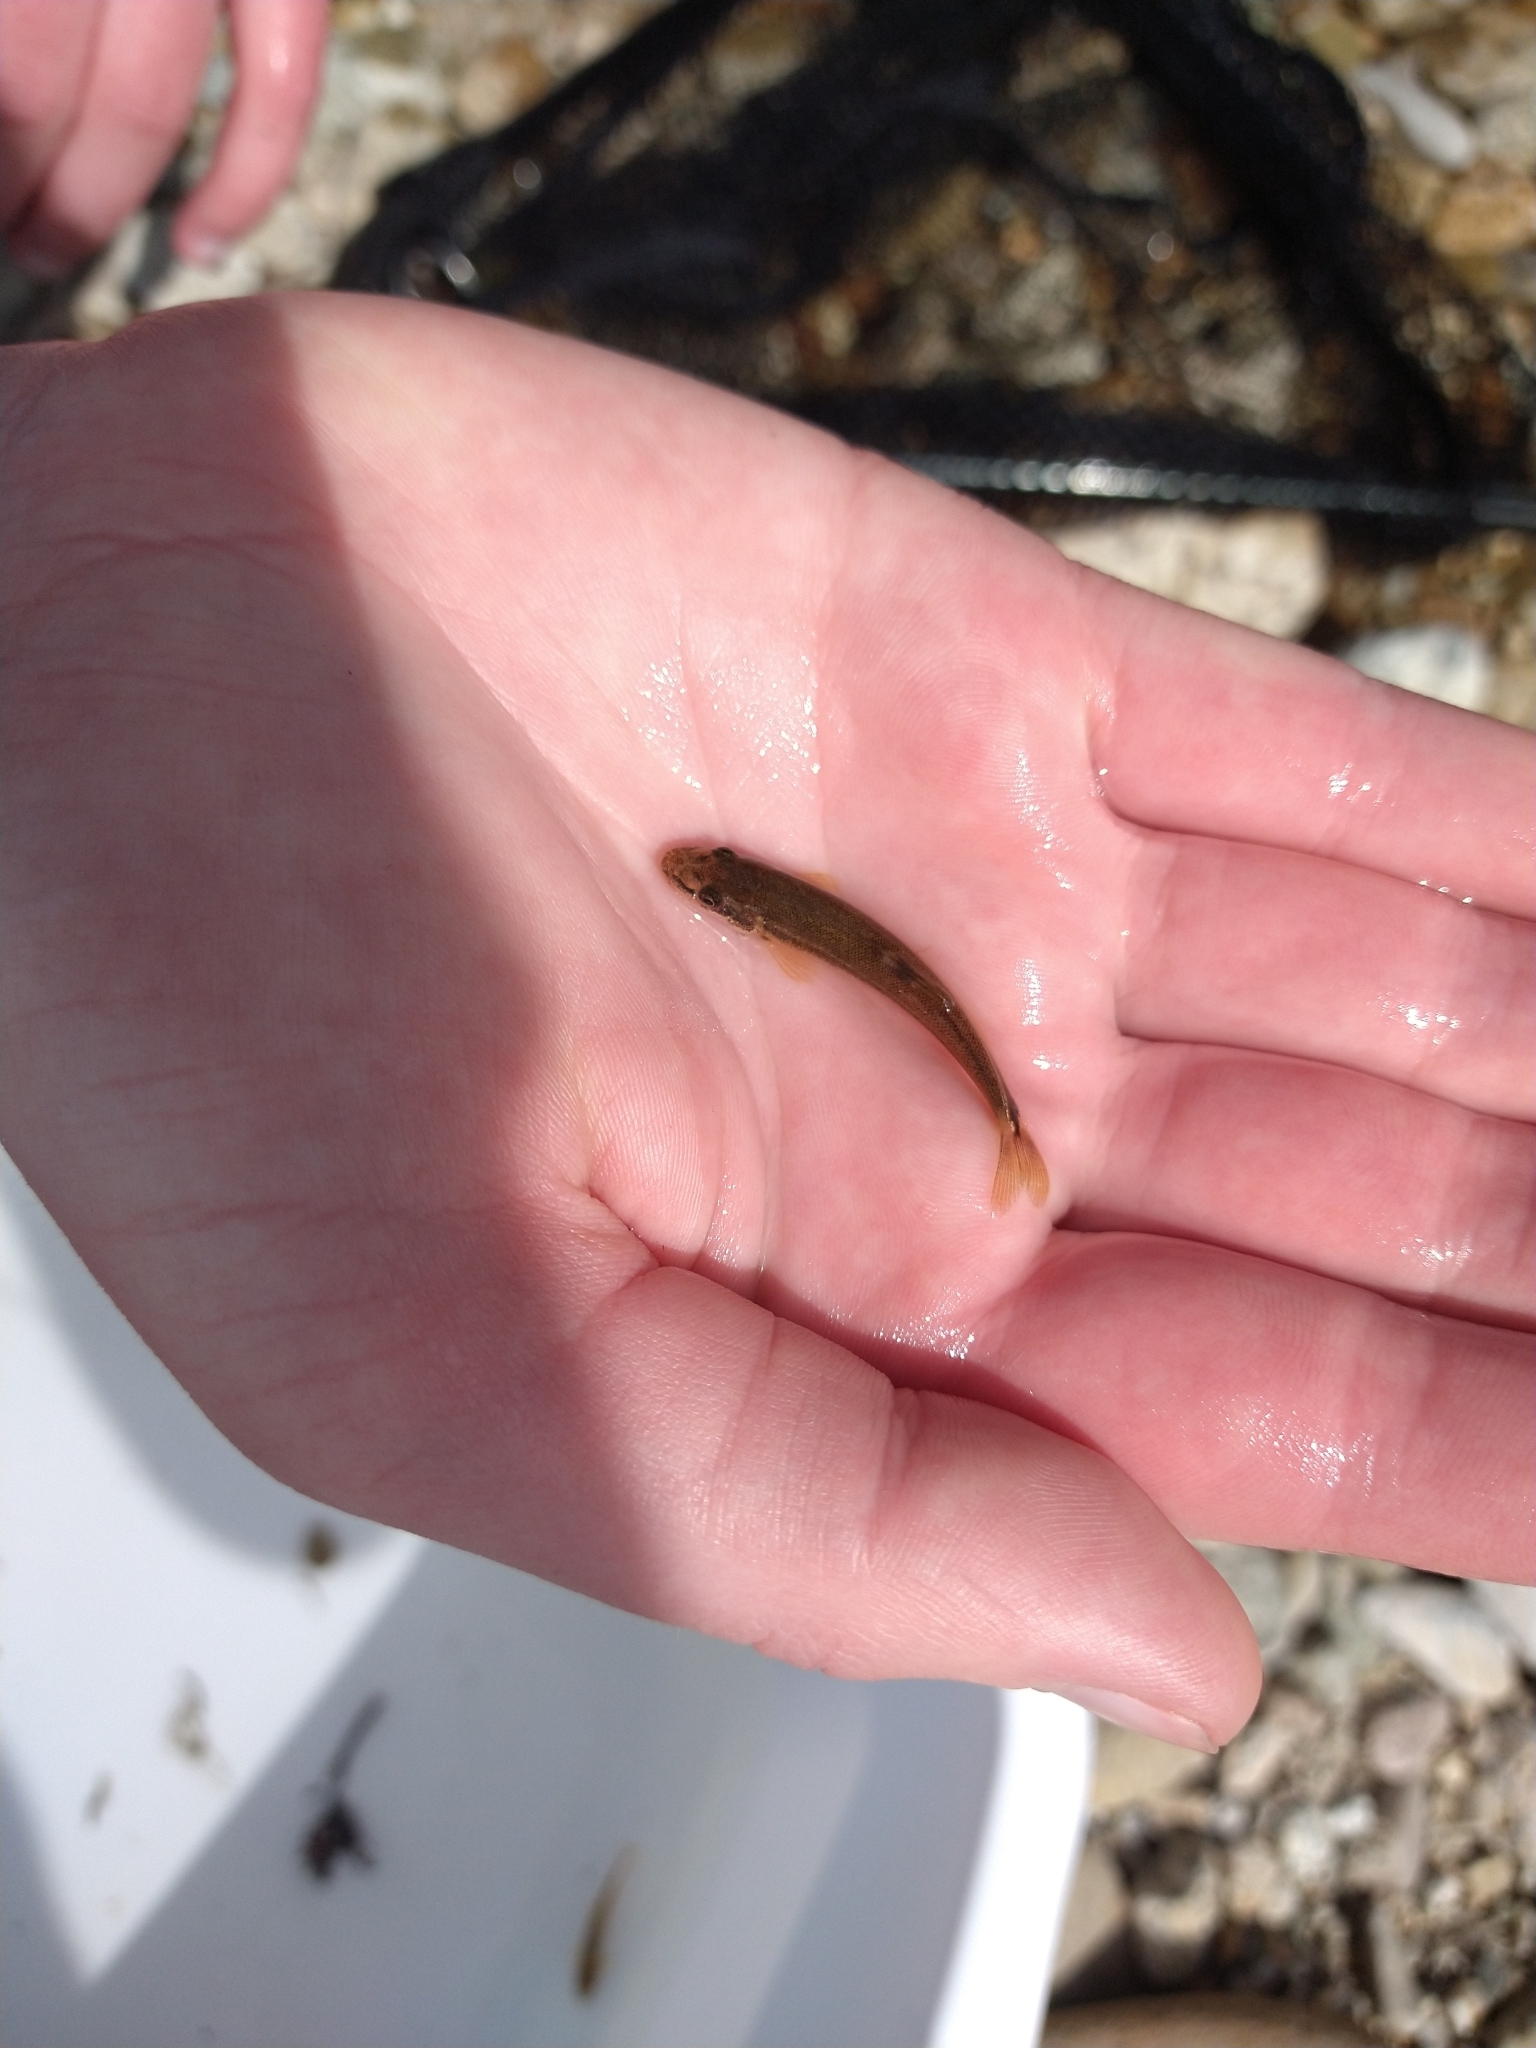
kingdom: Animalia
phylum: Chordata
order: Cypriniformes
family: Cyprinidae
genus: Rhinichthys
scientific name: Rhinichthys cataractae
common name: Longnose dace
